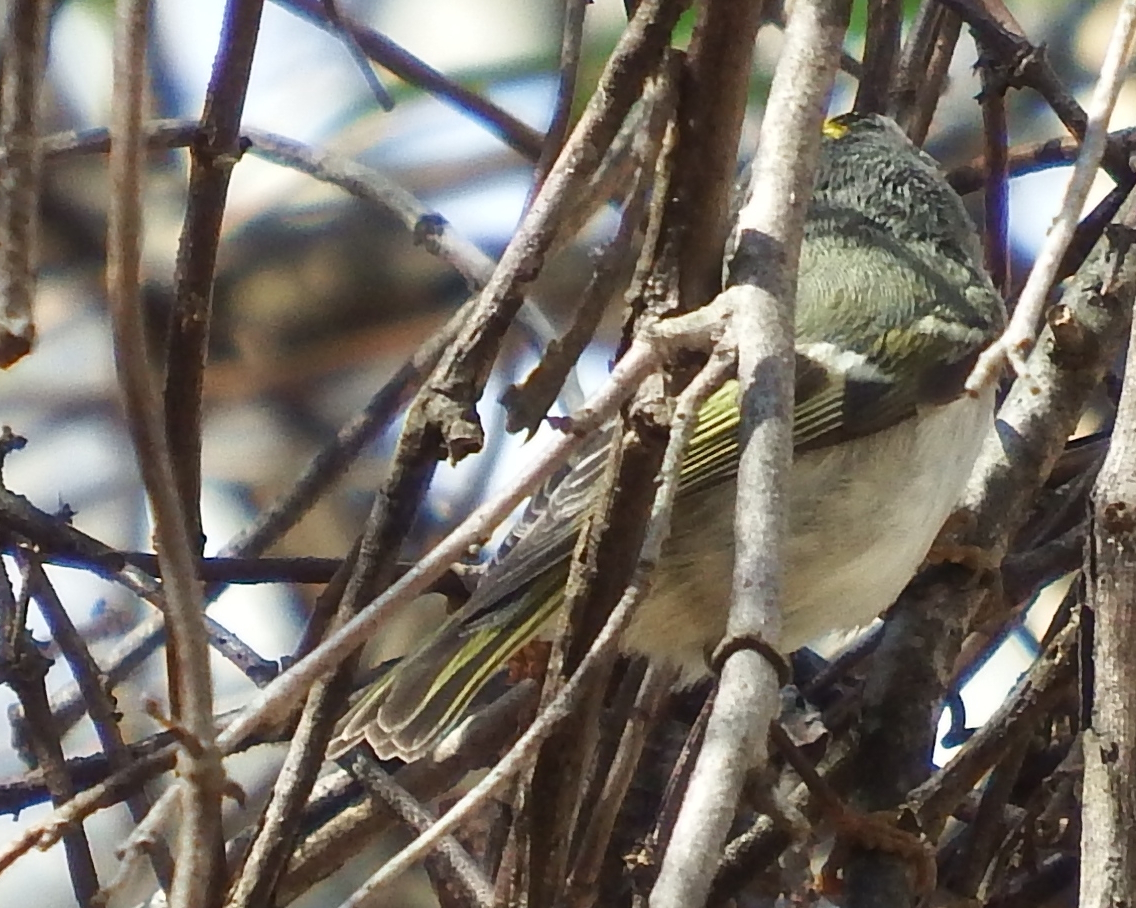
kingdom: Animalia
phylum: Chordata
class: Aves
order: Passeriformes
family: Regulidae
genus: Regulus
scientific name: Regulus satrapa
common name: Golden-crowned kinglet
